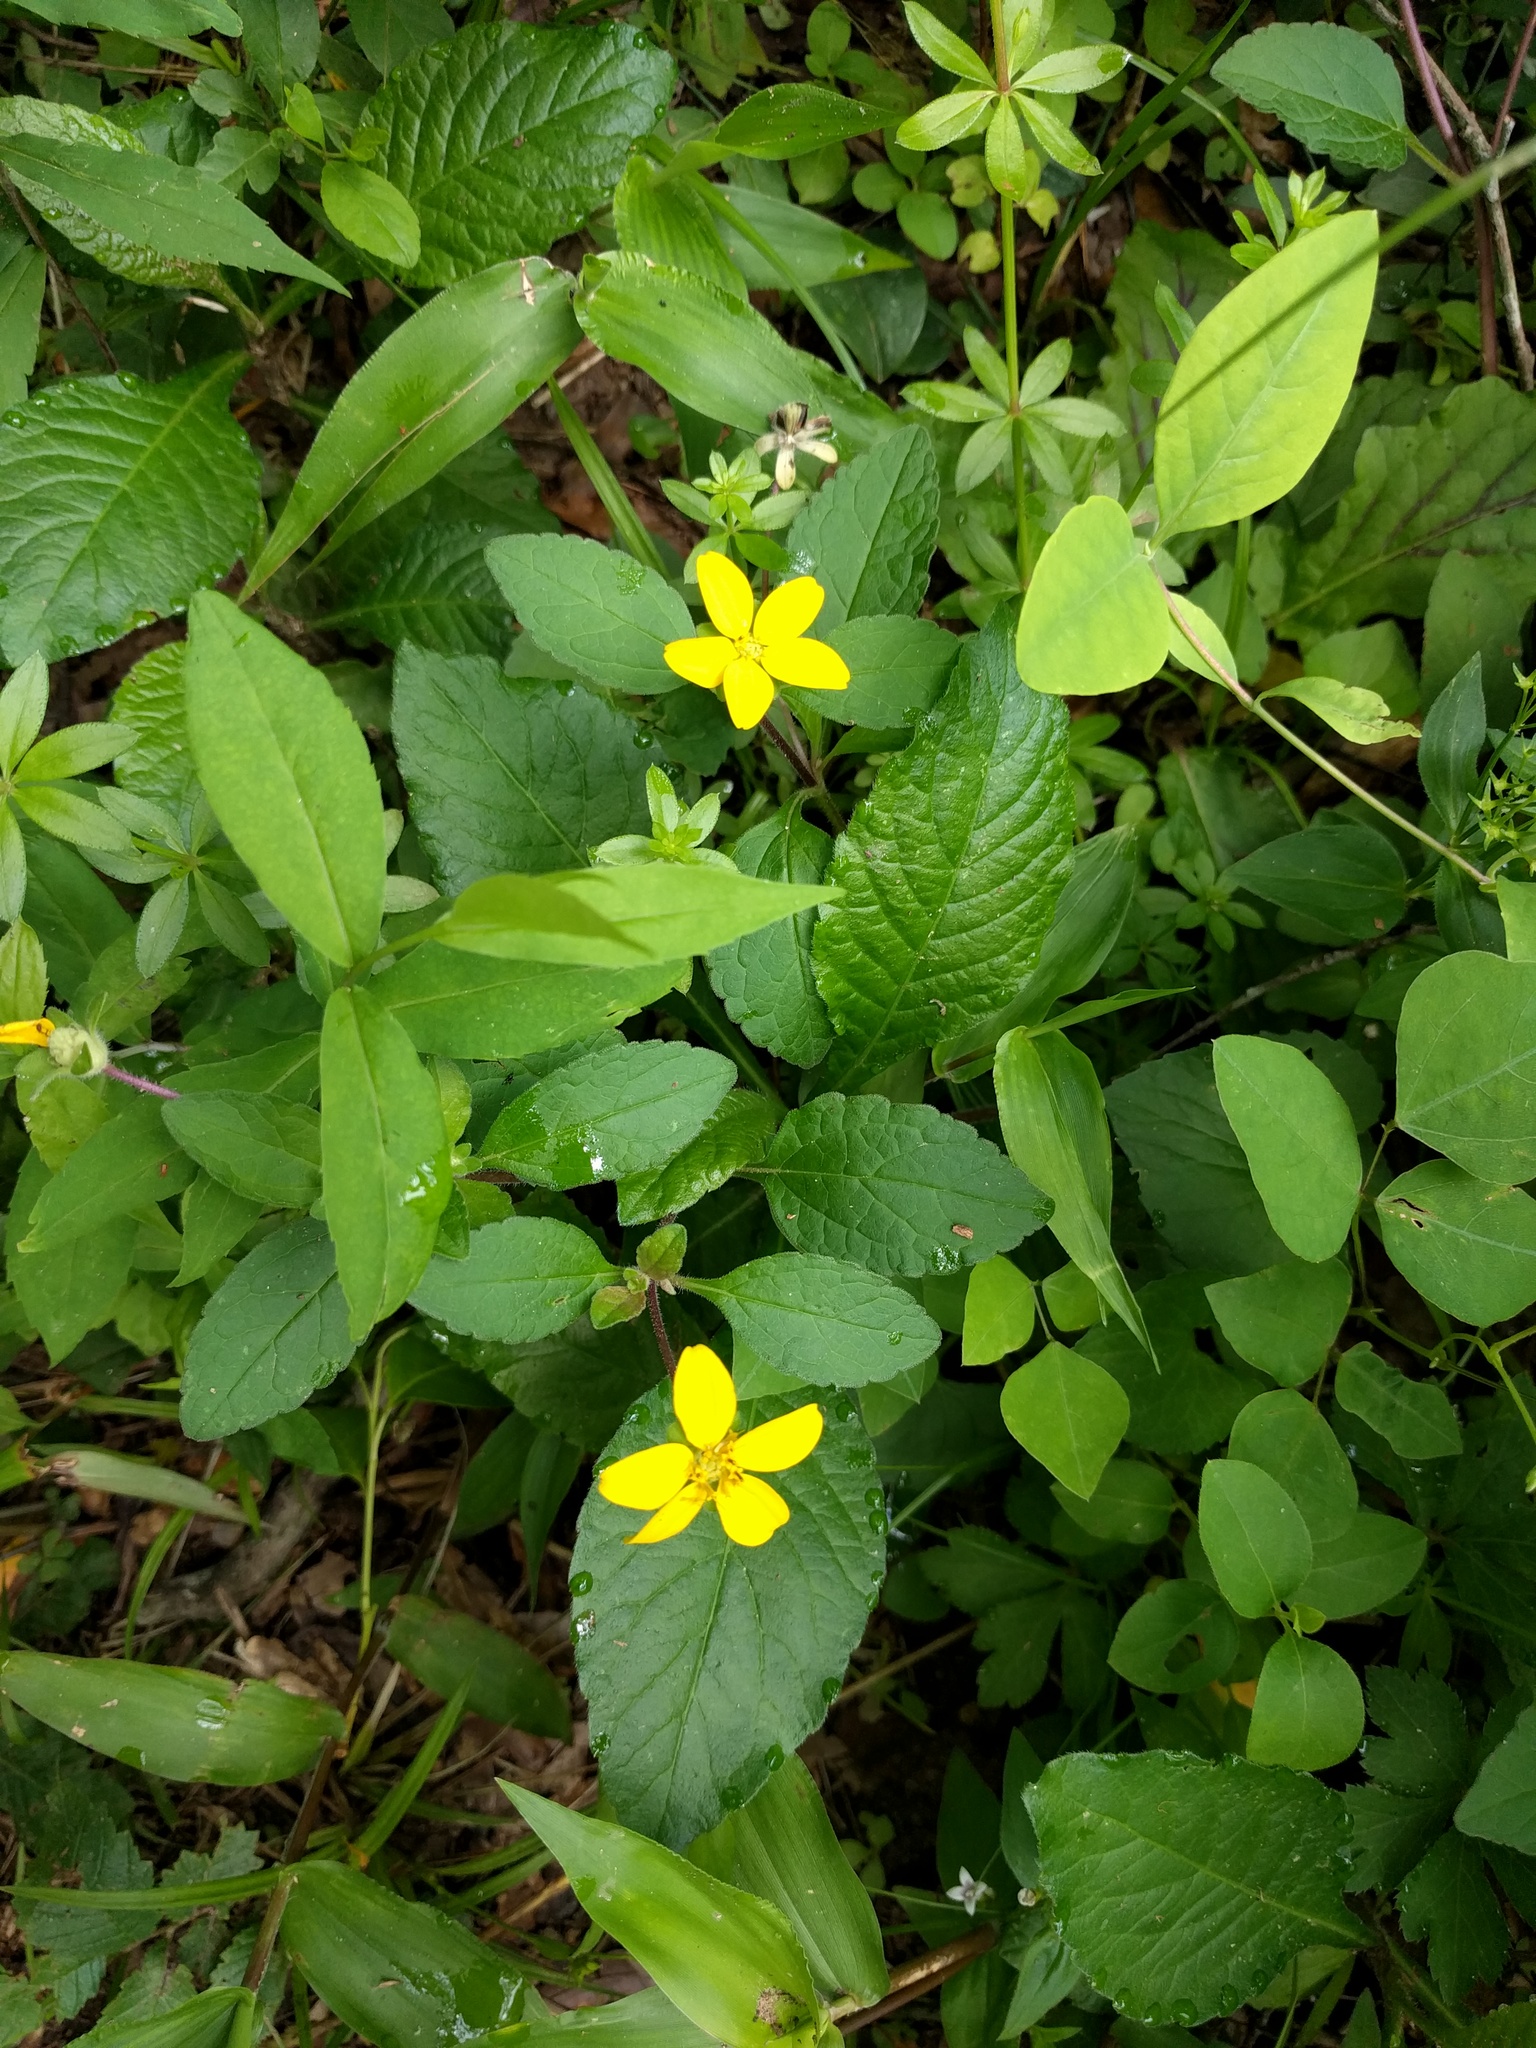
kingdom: Plantae
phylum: Tracheophyta
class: Magnoliopsida
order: Asterales
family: Asteraceae
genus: Chrysogonum
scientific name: Chrysogonum virginianum
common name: Golden-knee
